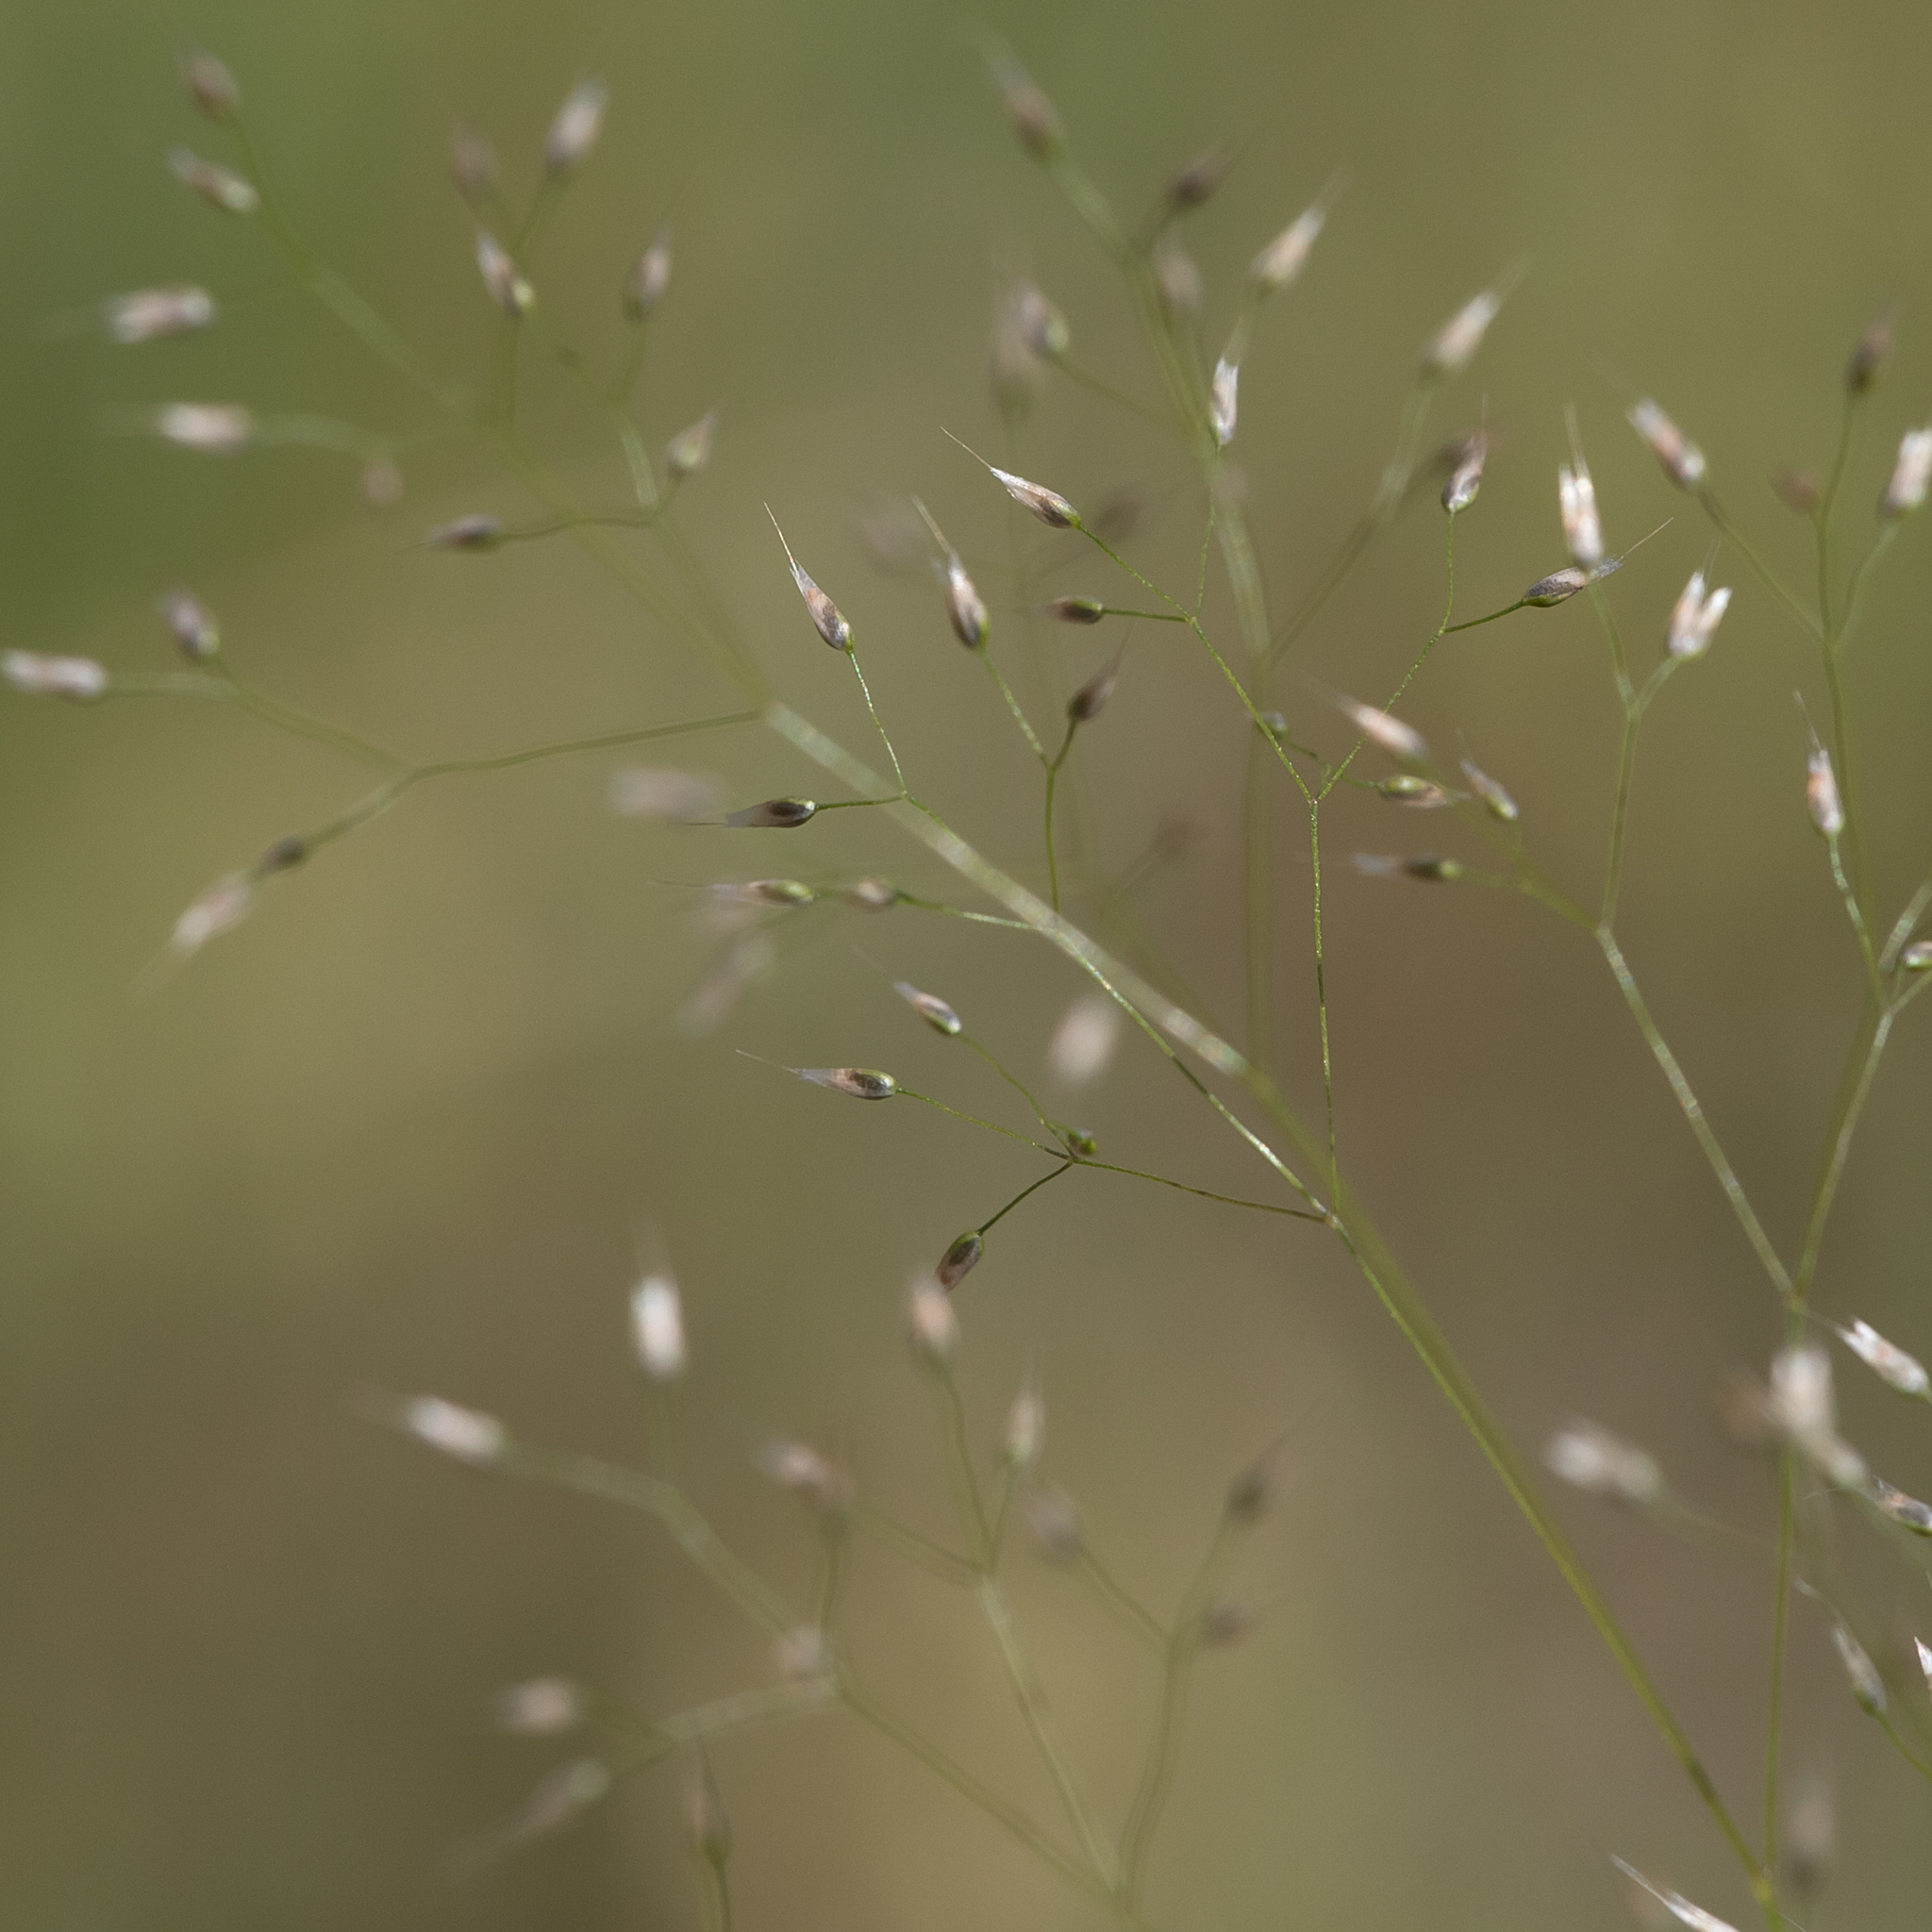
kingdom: Plantae
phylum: Tracheophyta
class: Liliopsida
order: Poales
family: Poaceae
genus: Aira
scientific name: Aira cupaniana
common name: Silver hairgrass
